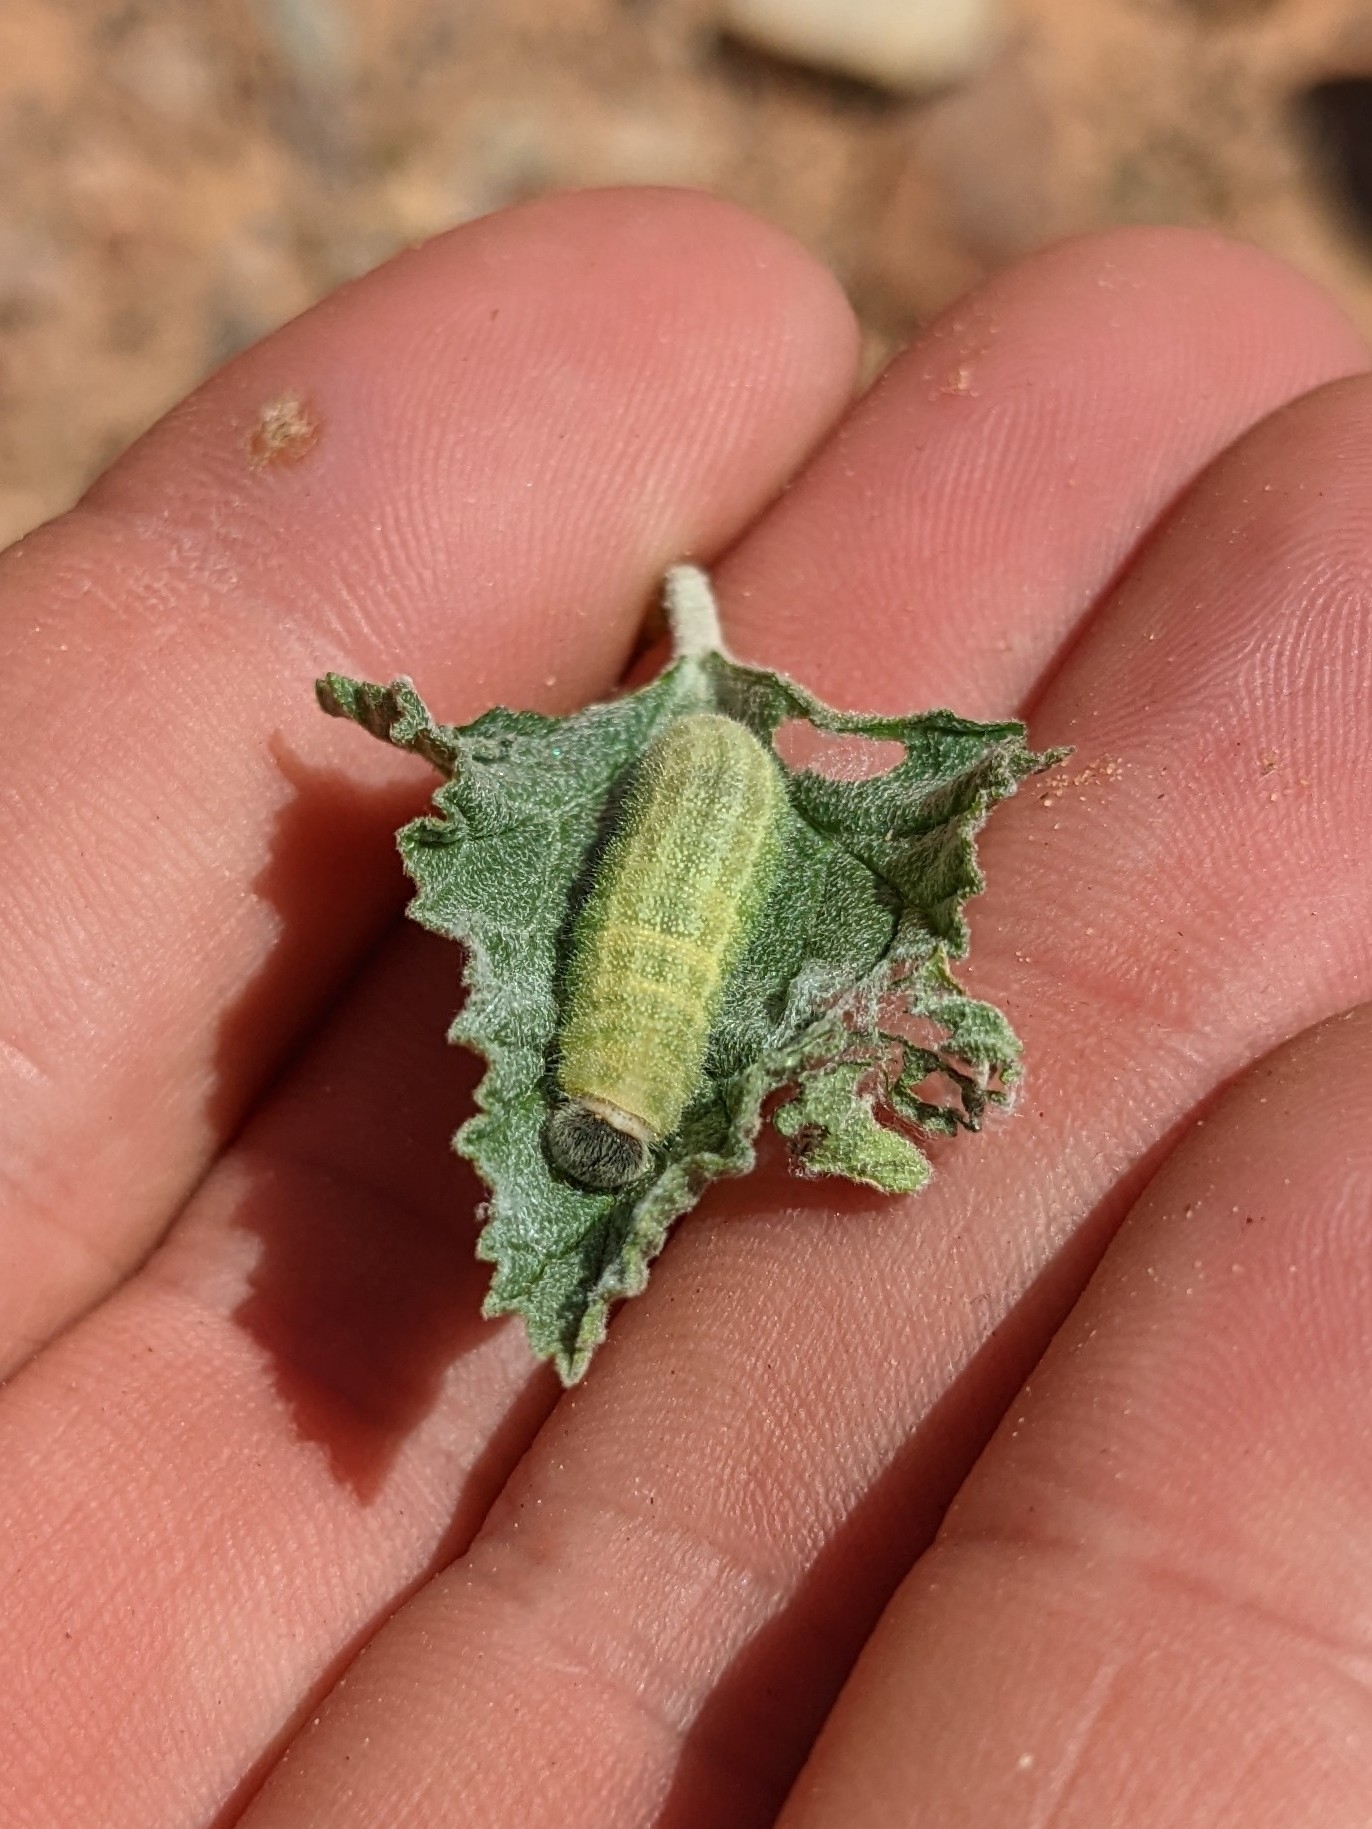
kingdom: Animalia
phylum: Arthropoda
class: Insecta
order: Lepidoptera
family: Hesperiidae
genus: Burnsius
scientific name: Burnsius communis
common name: Common checkered-skipper
